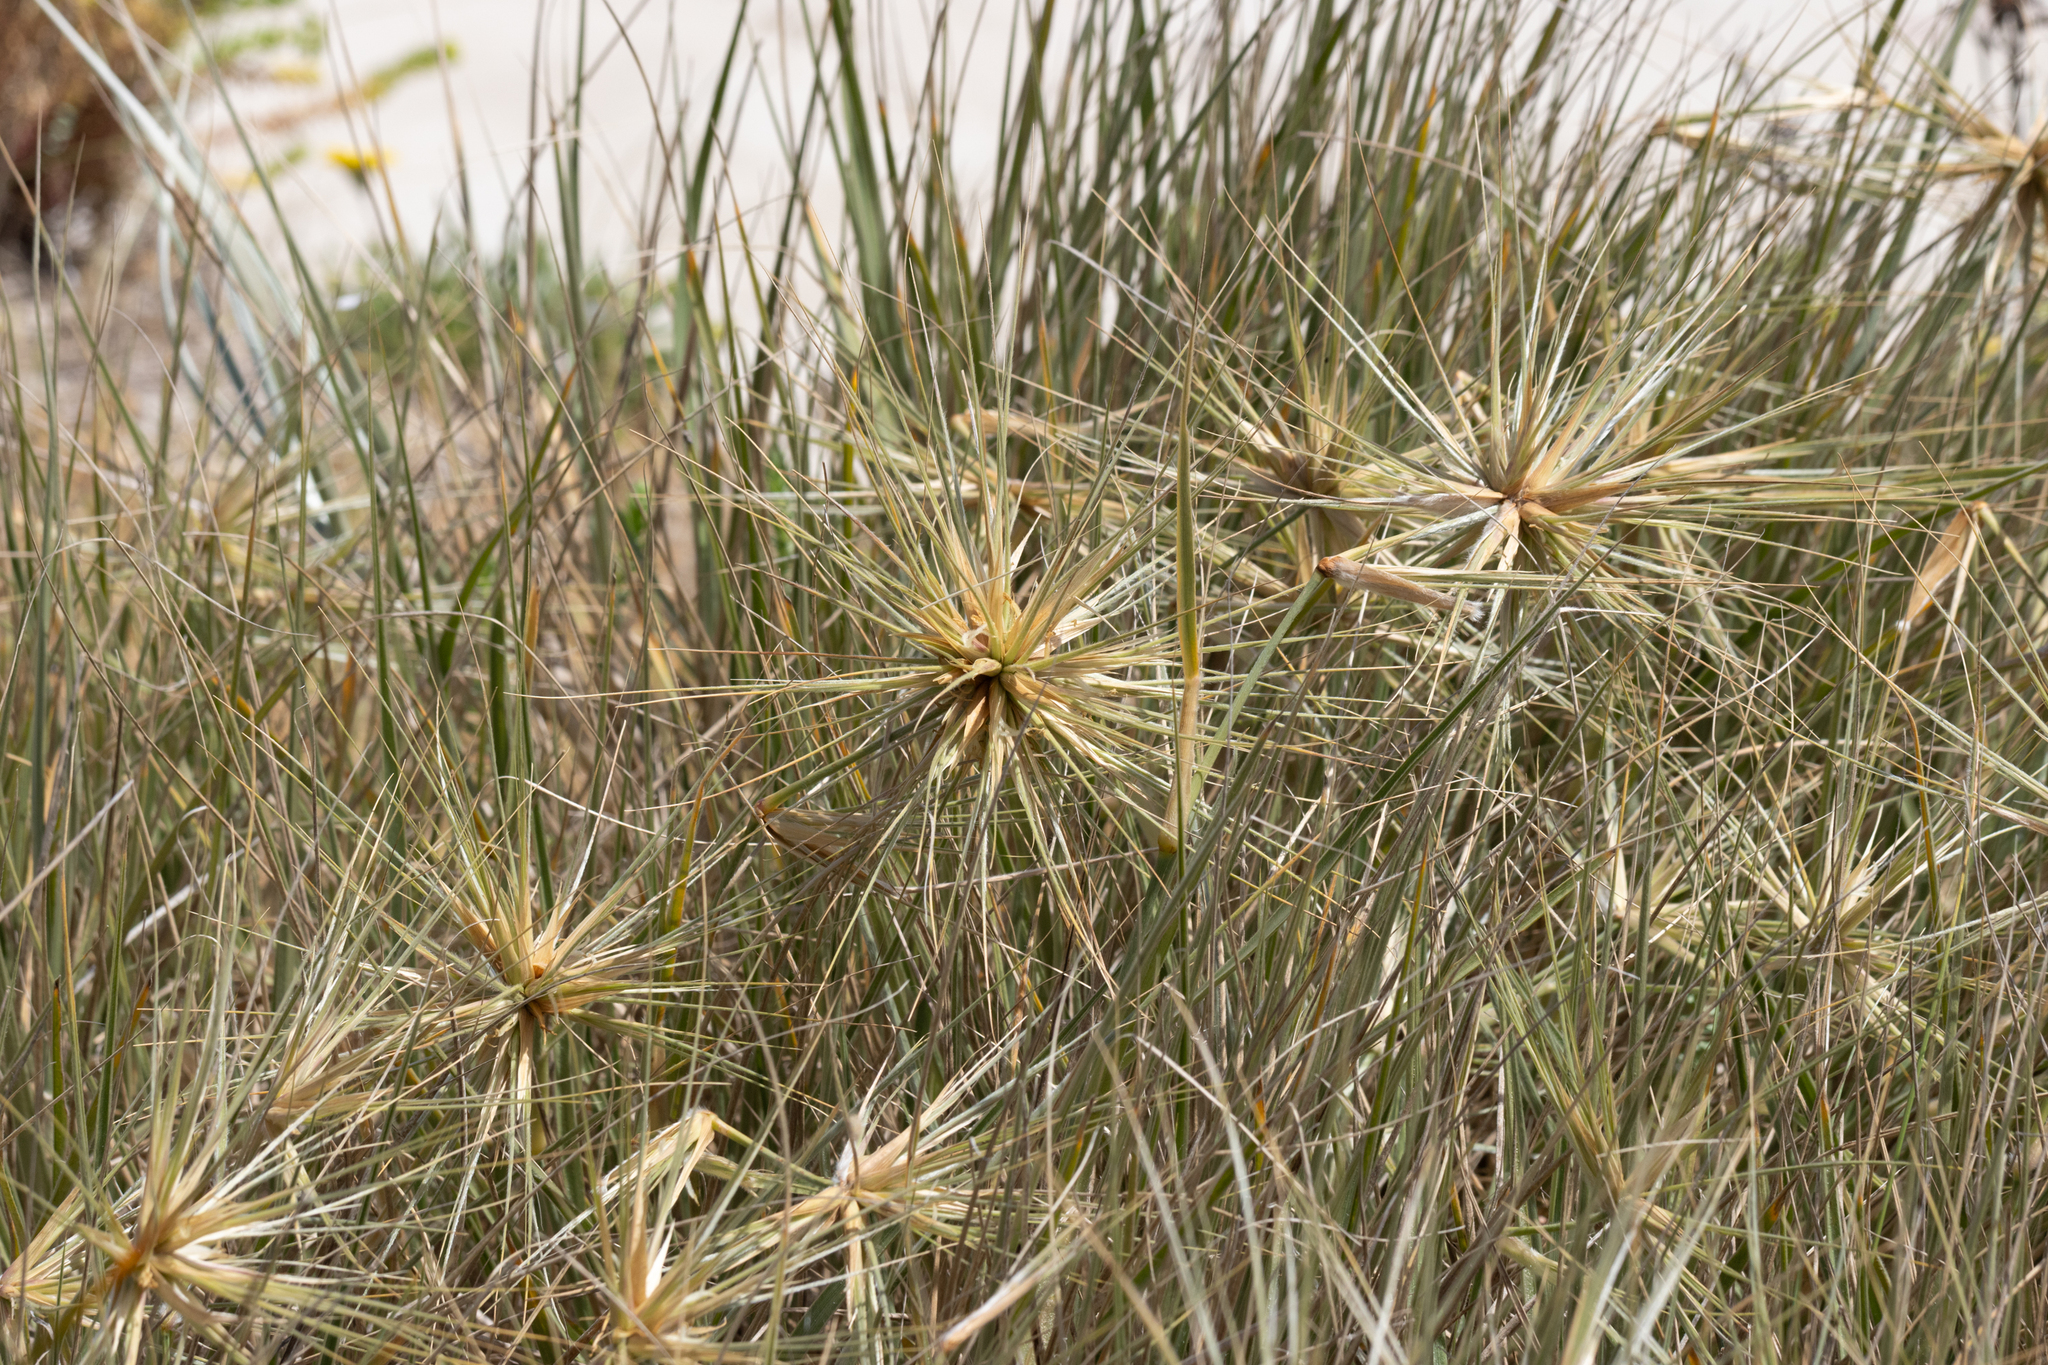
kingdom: Plantae
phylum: Tracheophyta
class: Liliopsida
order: Poales
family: Poaceae
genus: Spinifex
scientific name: Spinifex sericeus
